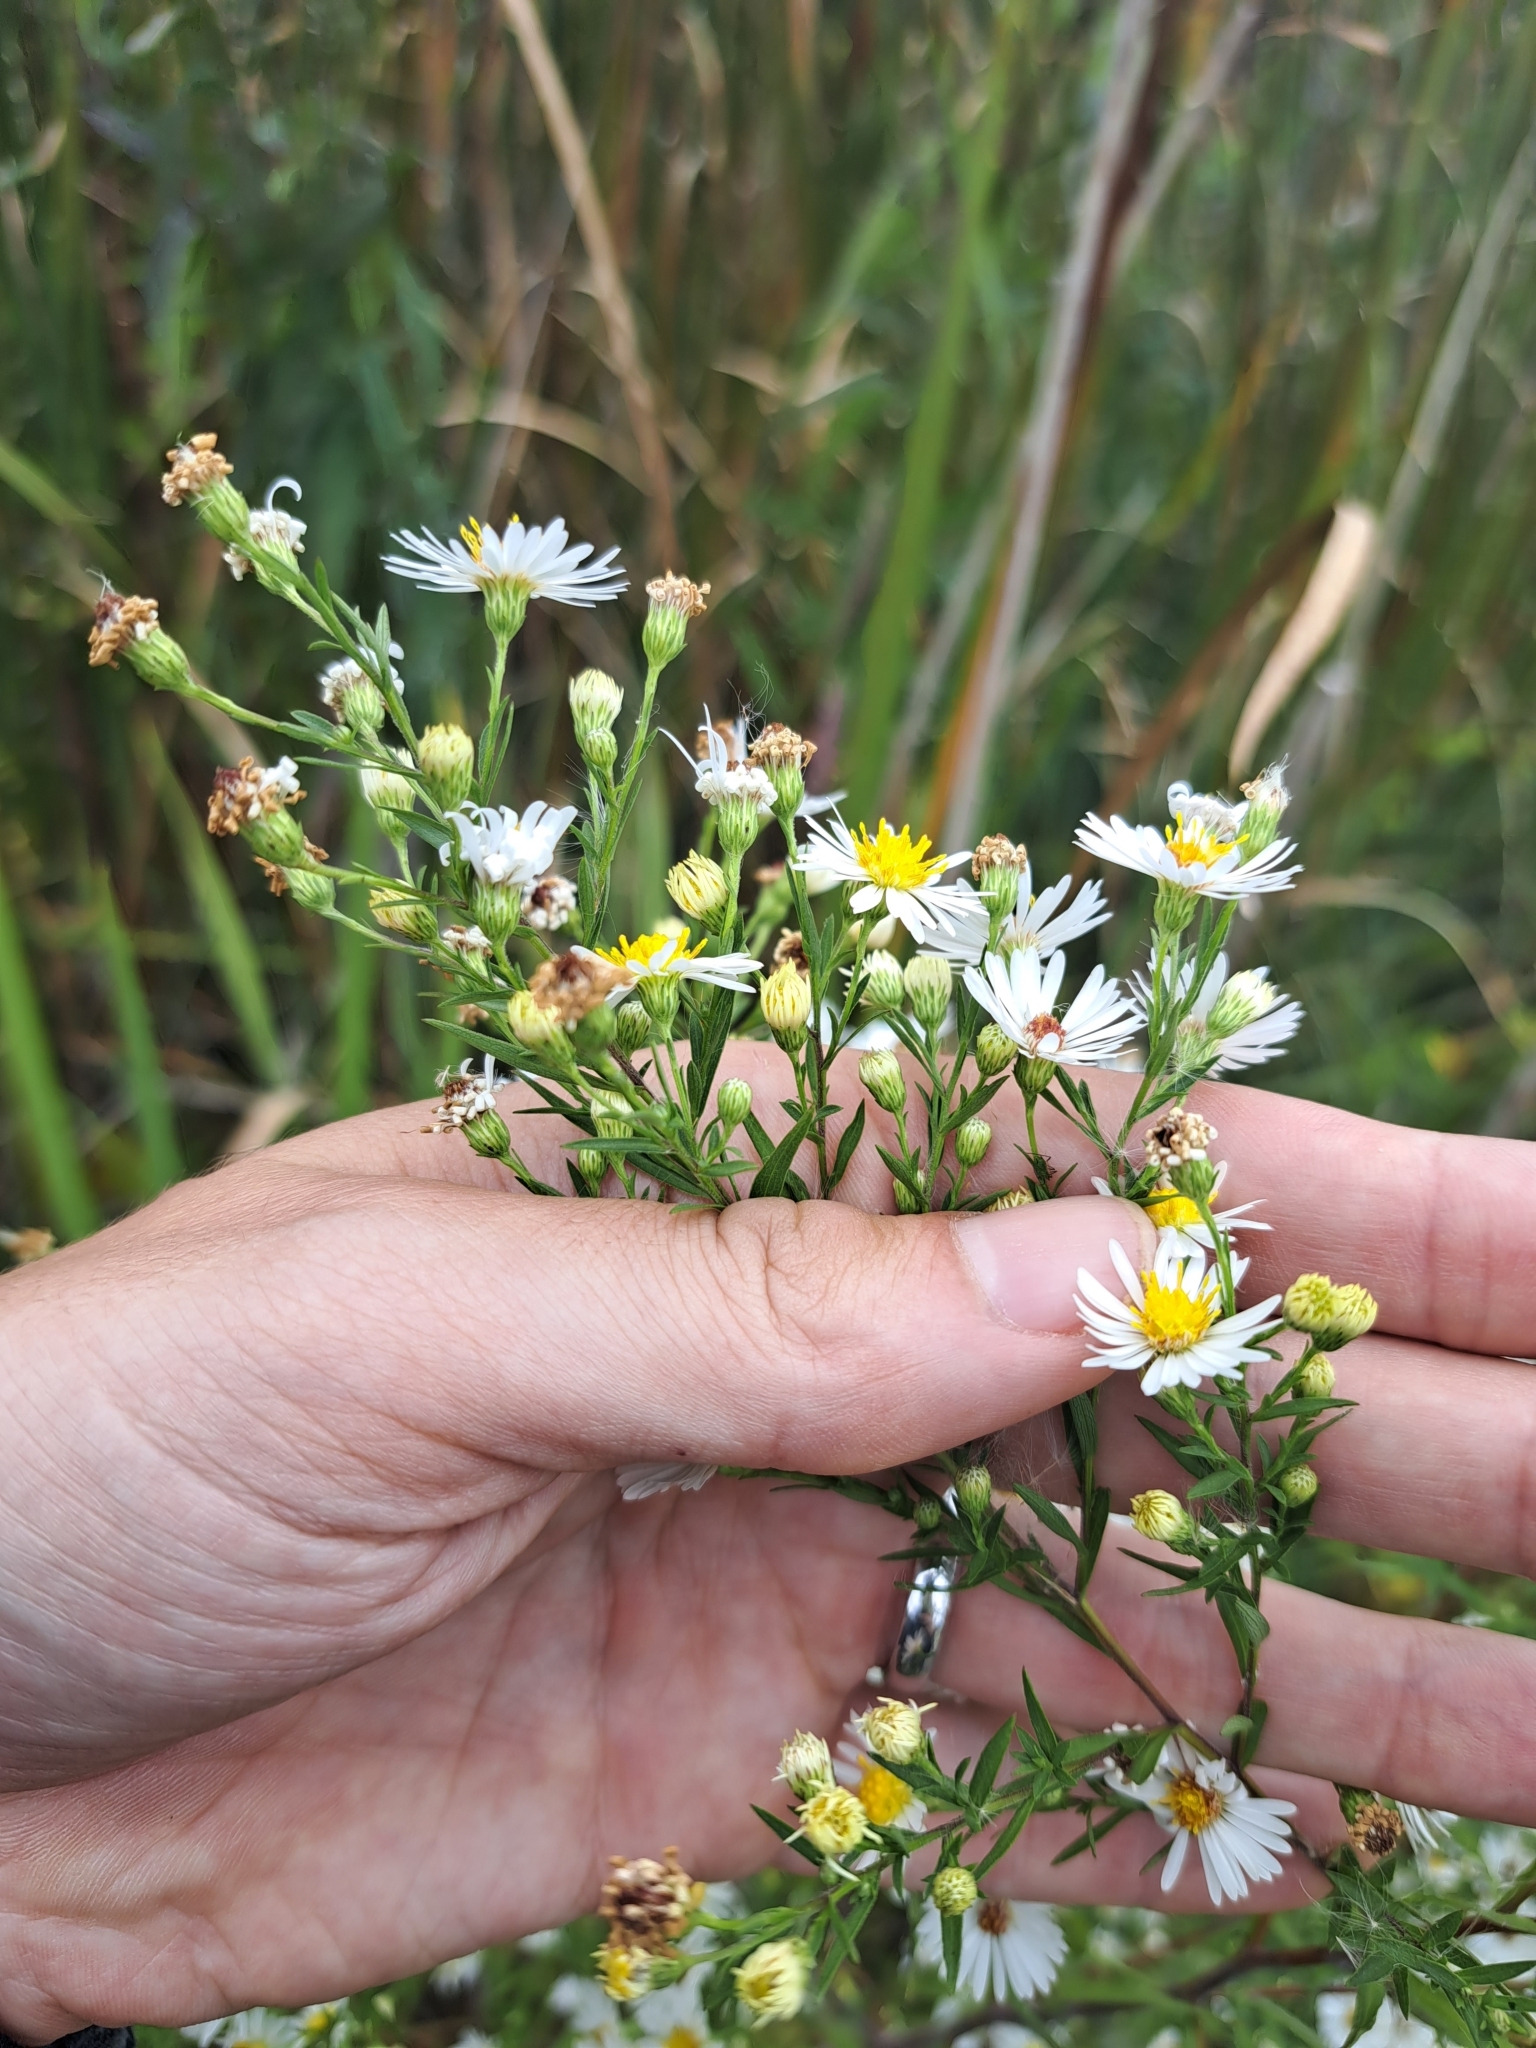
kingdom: Plantae
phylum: Tracheophyta
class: Magnoliopsida
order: Asterales
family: Asteraceae
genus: Symphyotrichum
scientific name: Symphyotrichum lanceolatum
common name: Panicled aster
